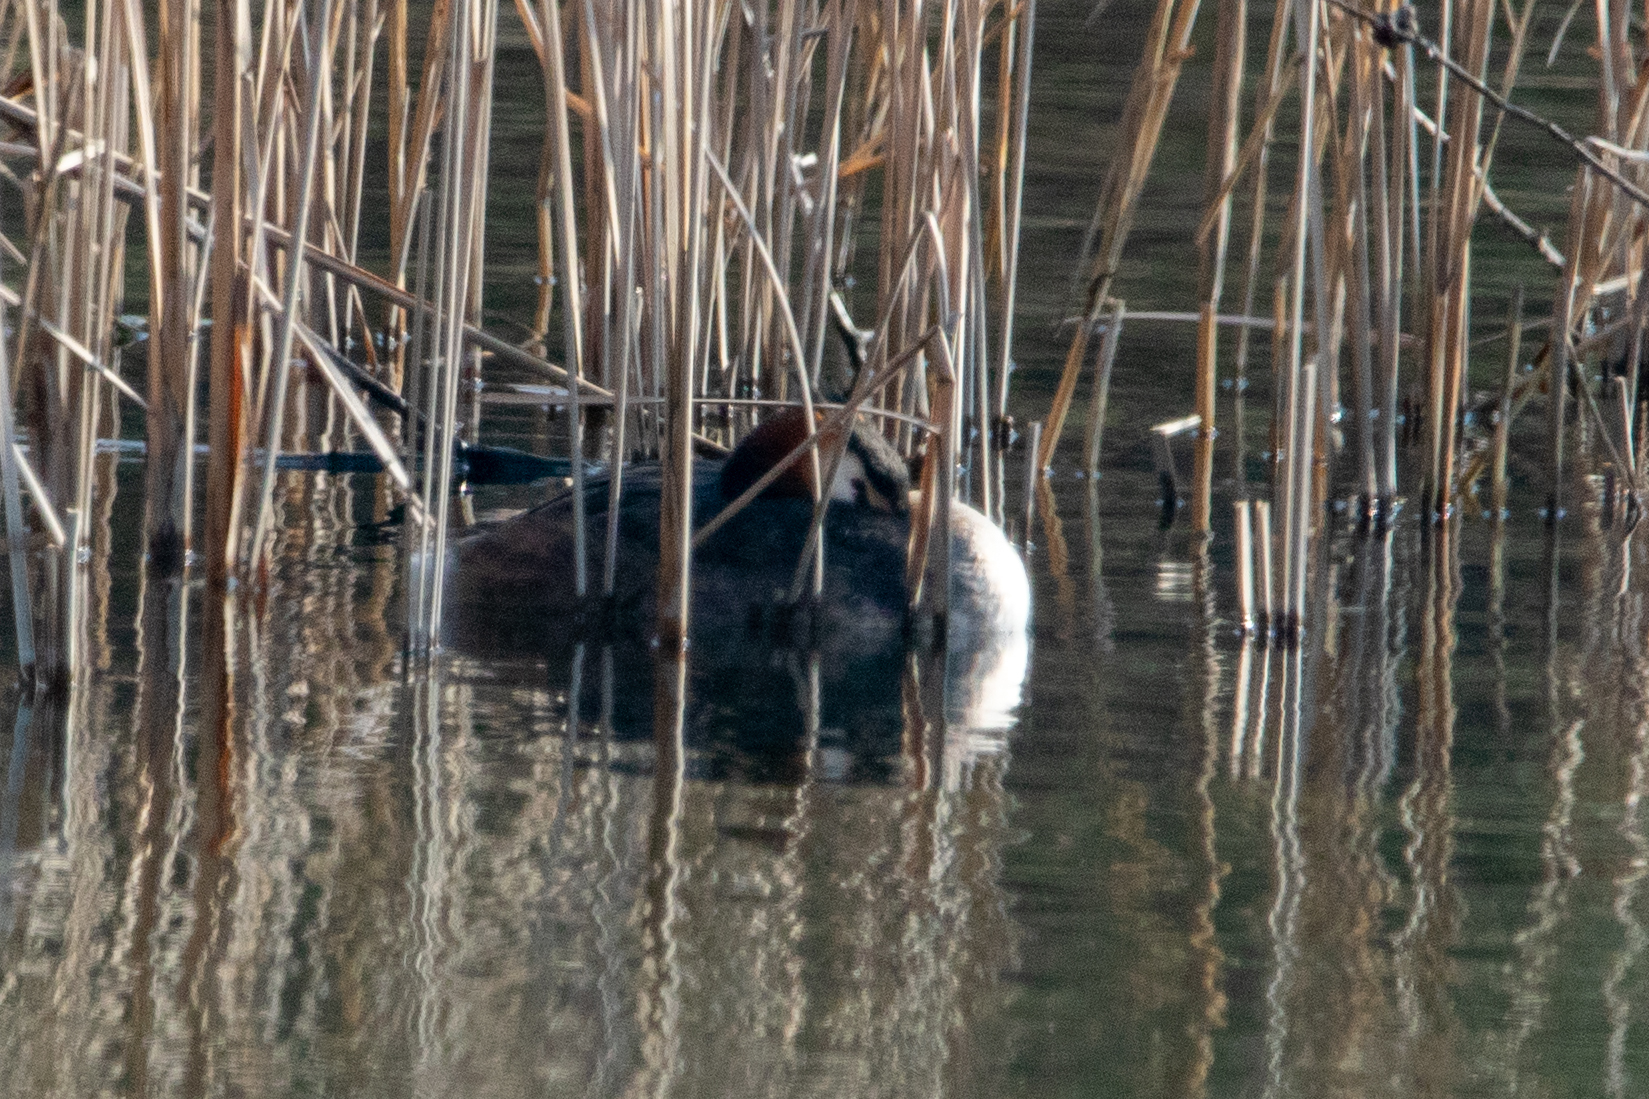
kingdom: Animalia
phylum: Chordata
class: Aves
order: Podicipediformes
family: Podicipedidae
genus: Podiceps
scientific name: Podiceps cristatus
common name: Great crested grebe
